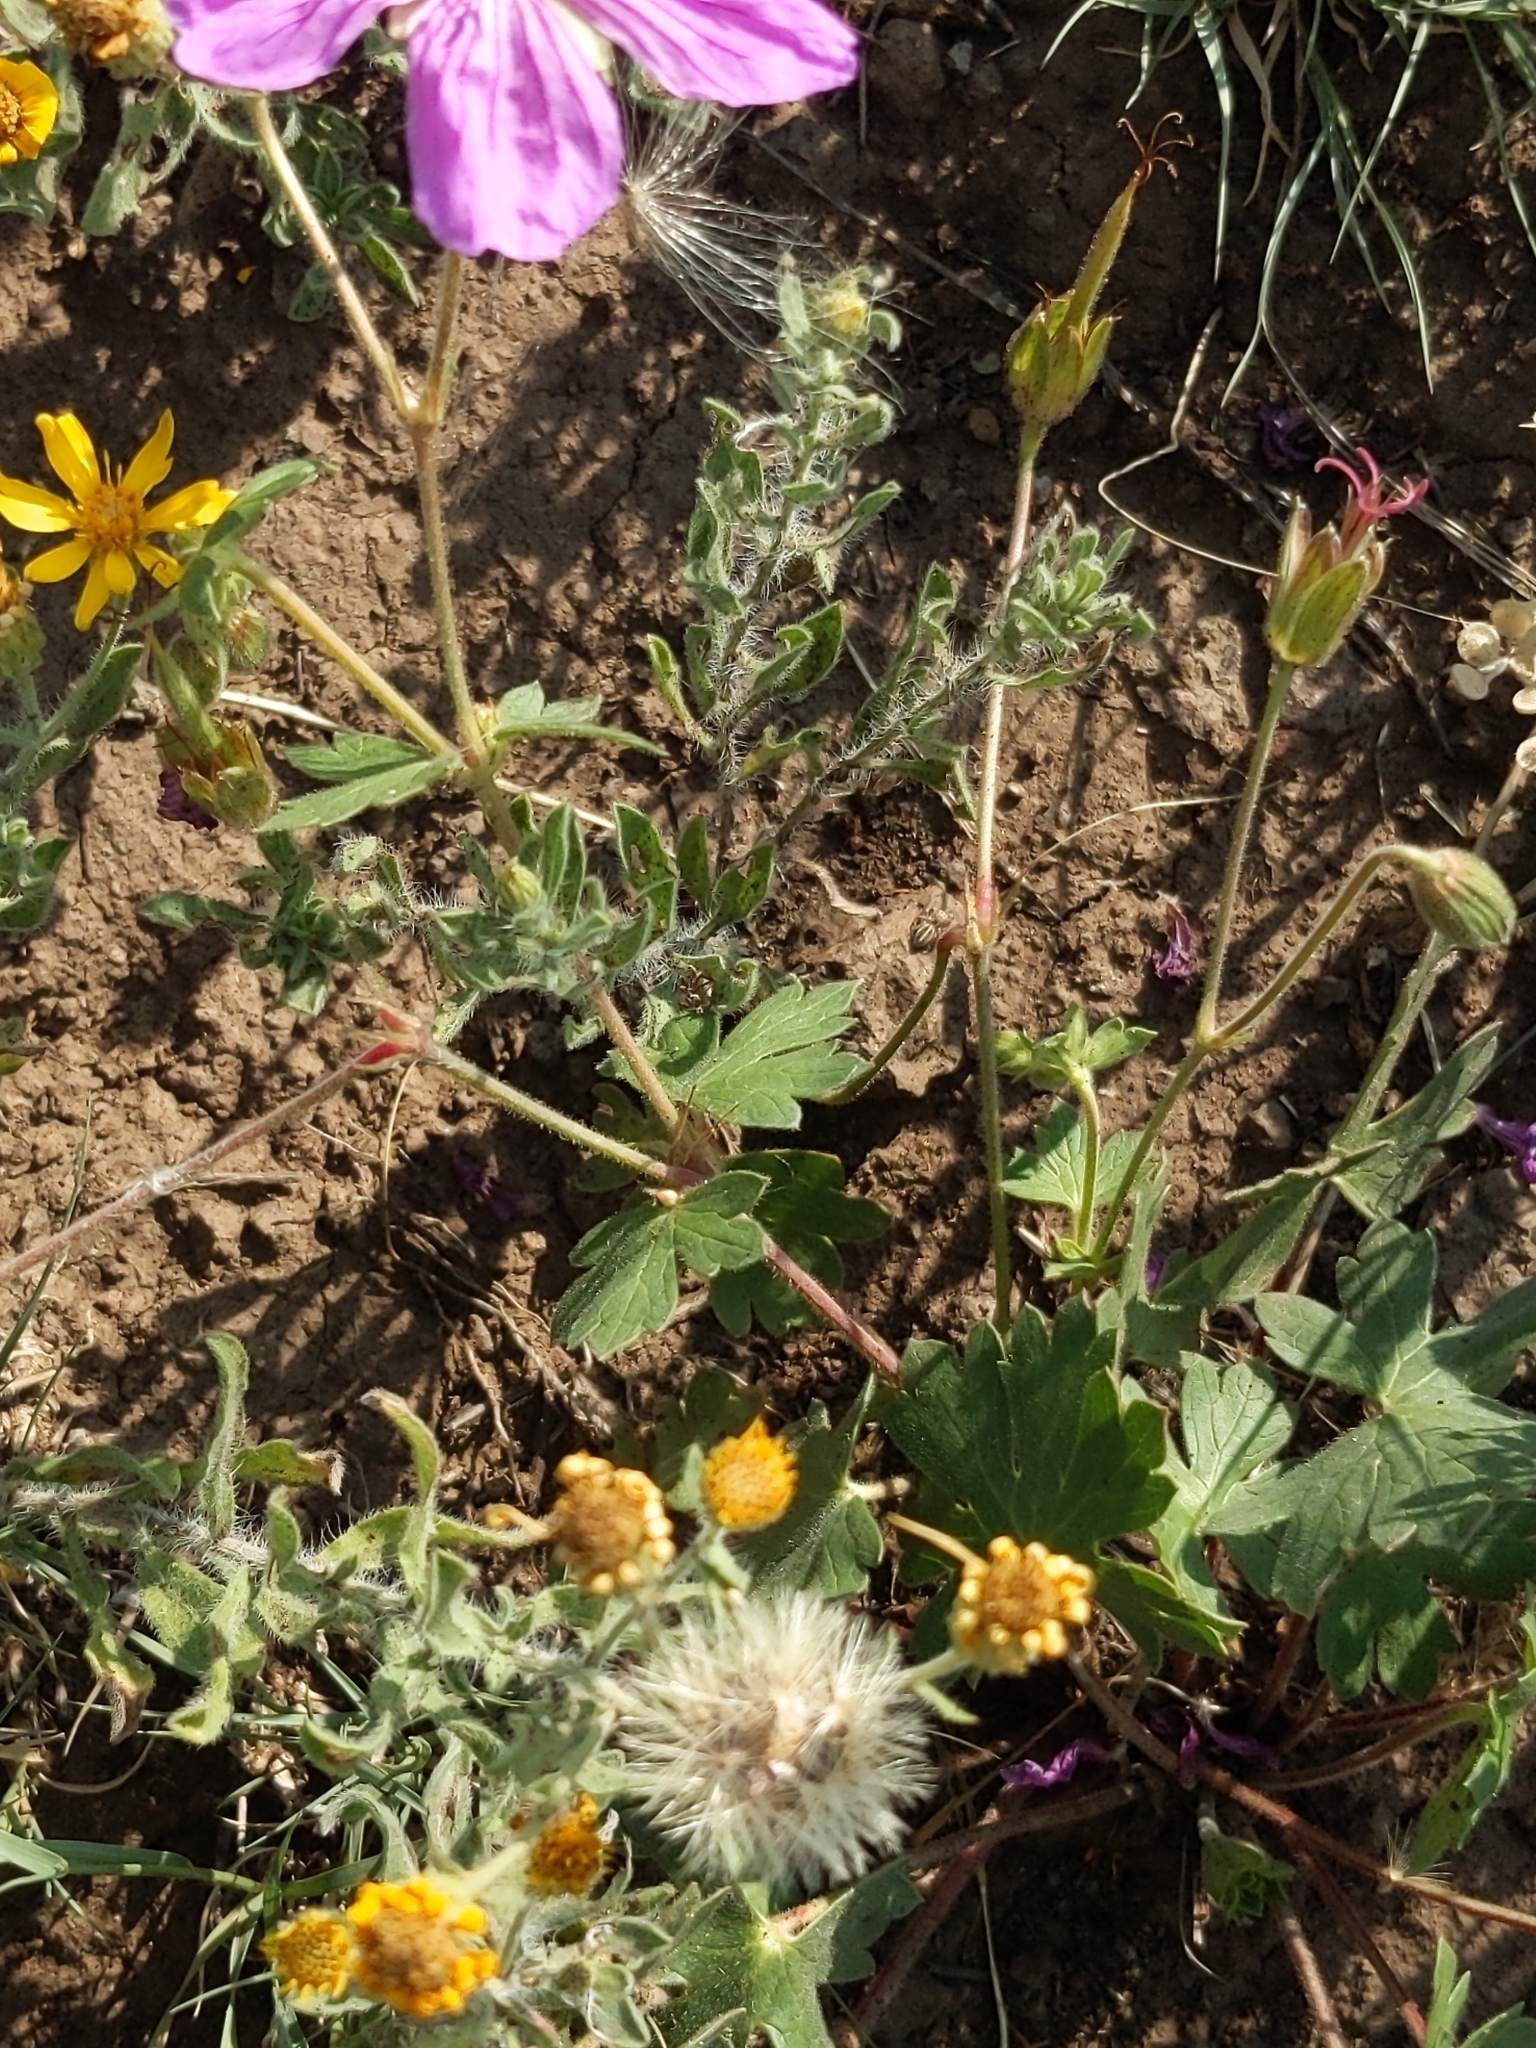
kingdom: Plantae
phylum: Tracheophyta
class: Magnoliopsida
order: Geraniales
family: Geraniaceae
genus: Geranium
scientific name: Geranium caespitosum
